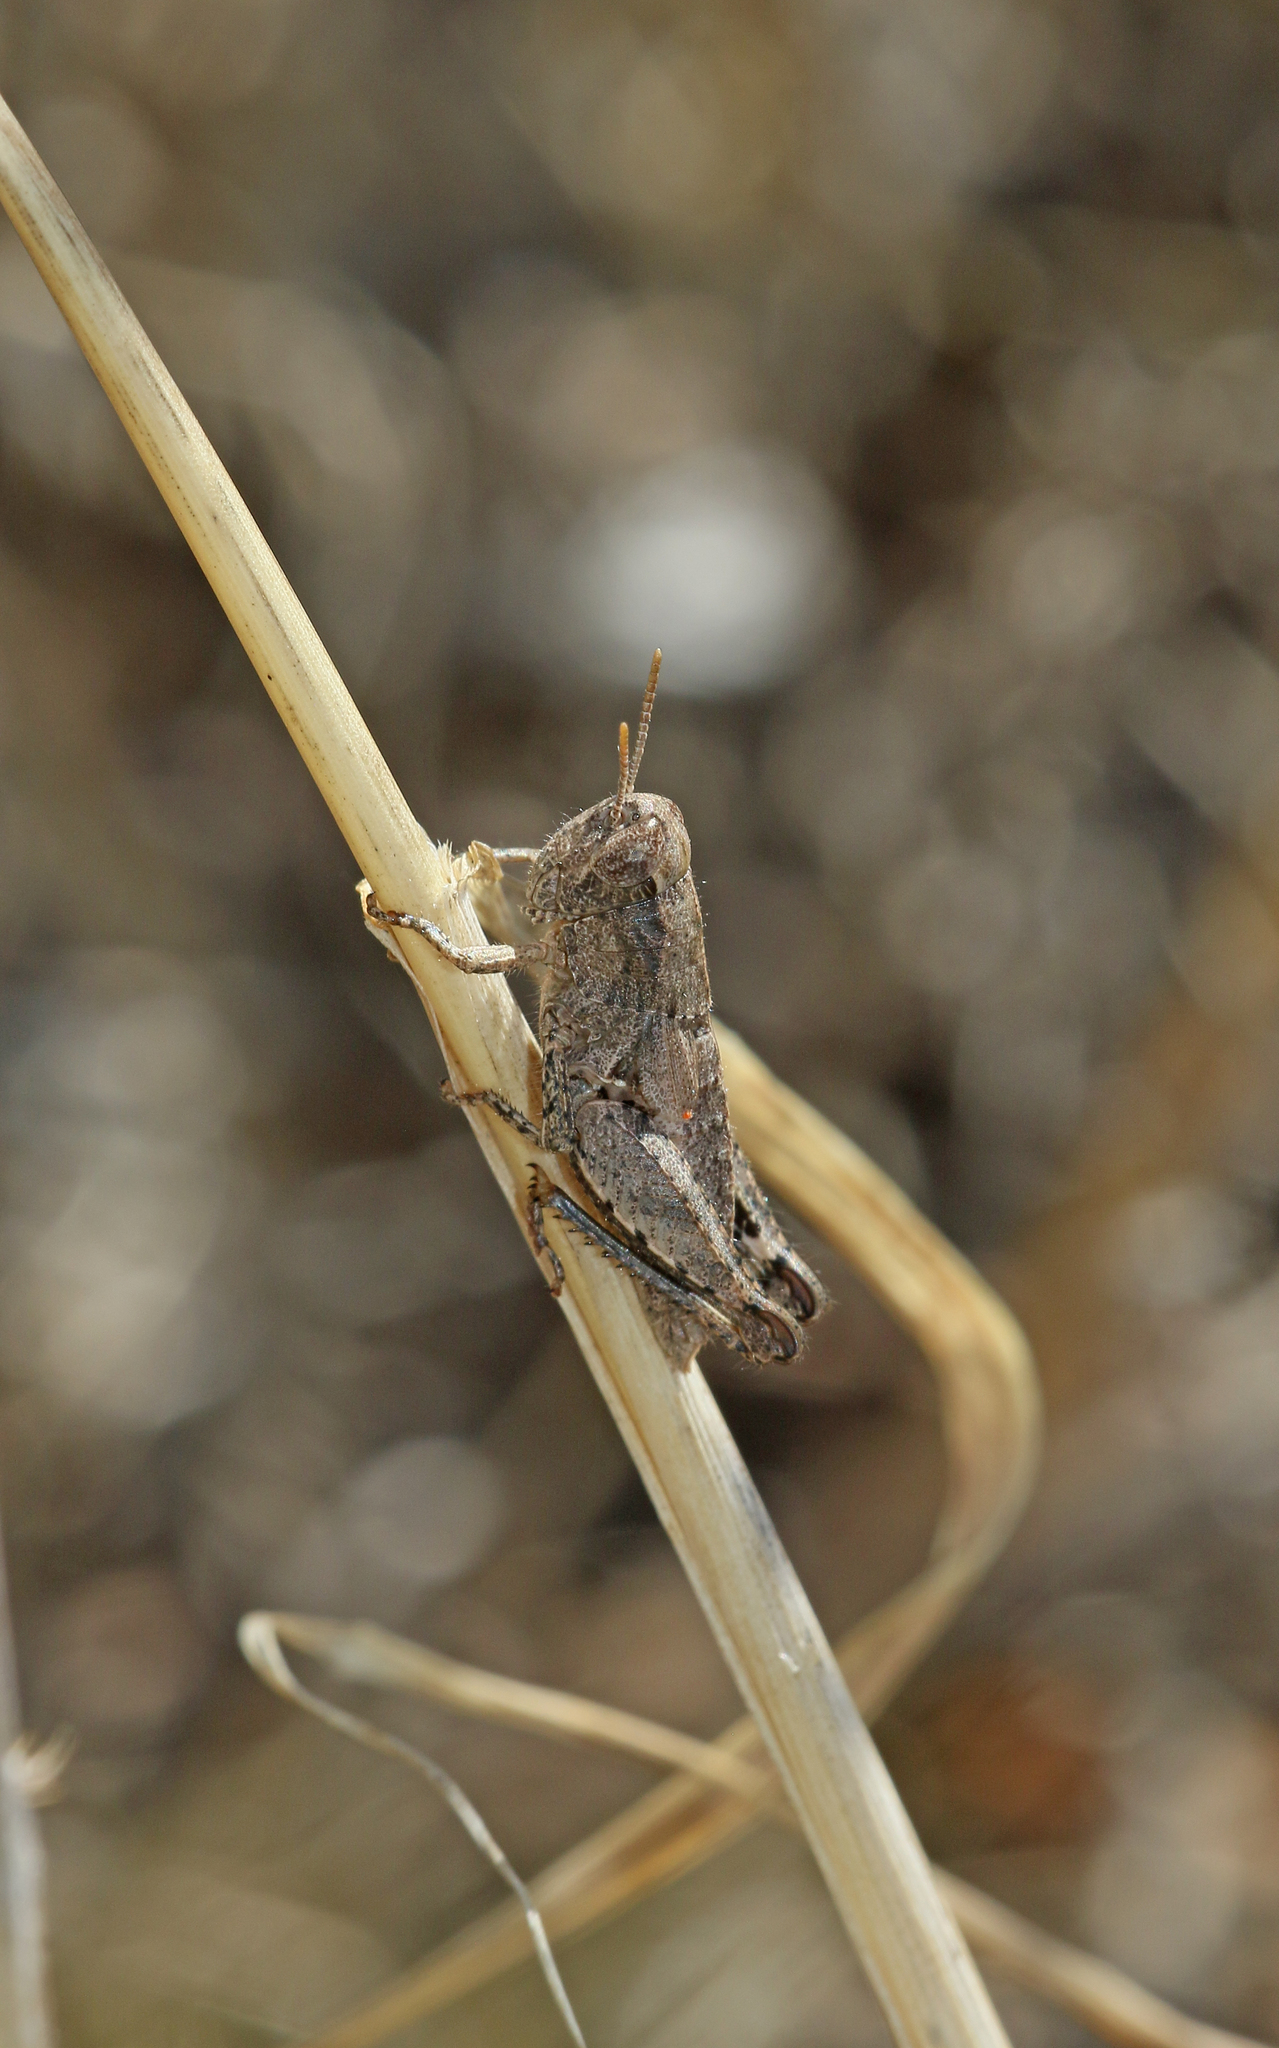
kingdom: Animalia
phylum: Arthropoda
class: Insecta
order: Orthoptera
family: Acrididae
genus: Pezotettix
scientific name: Pezotettix giornae
